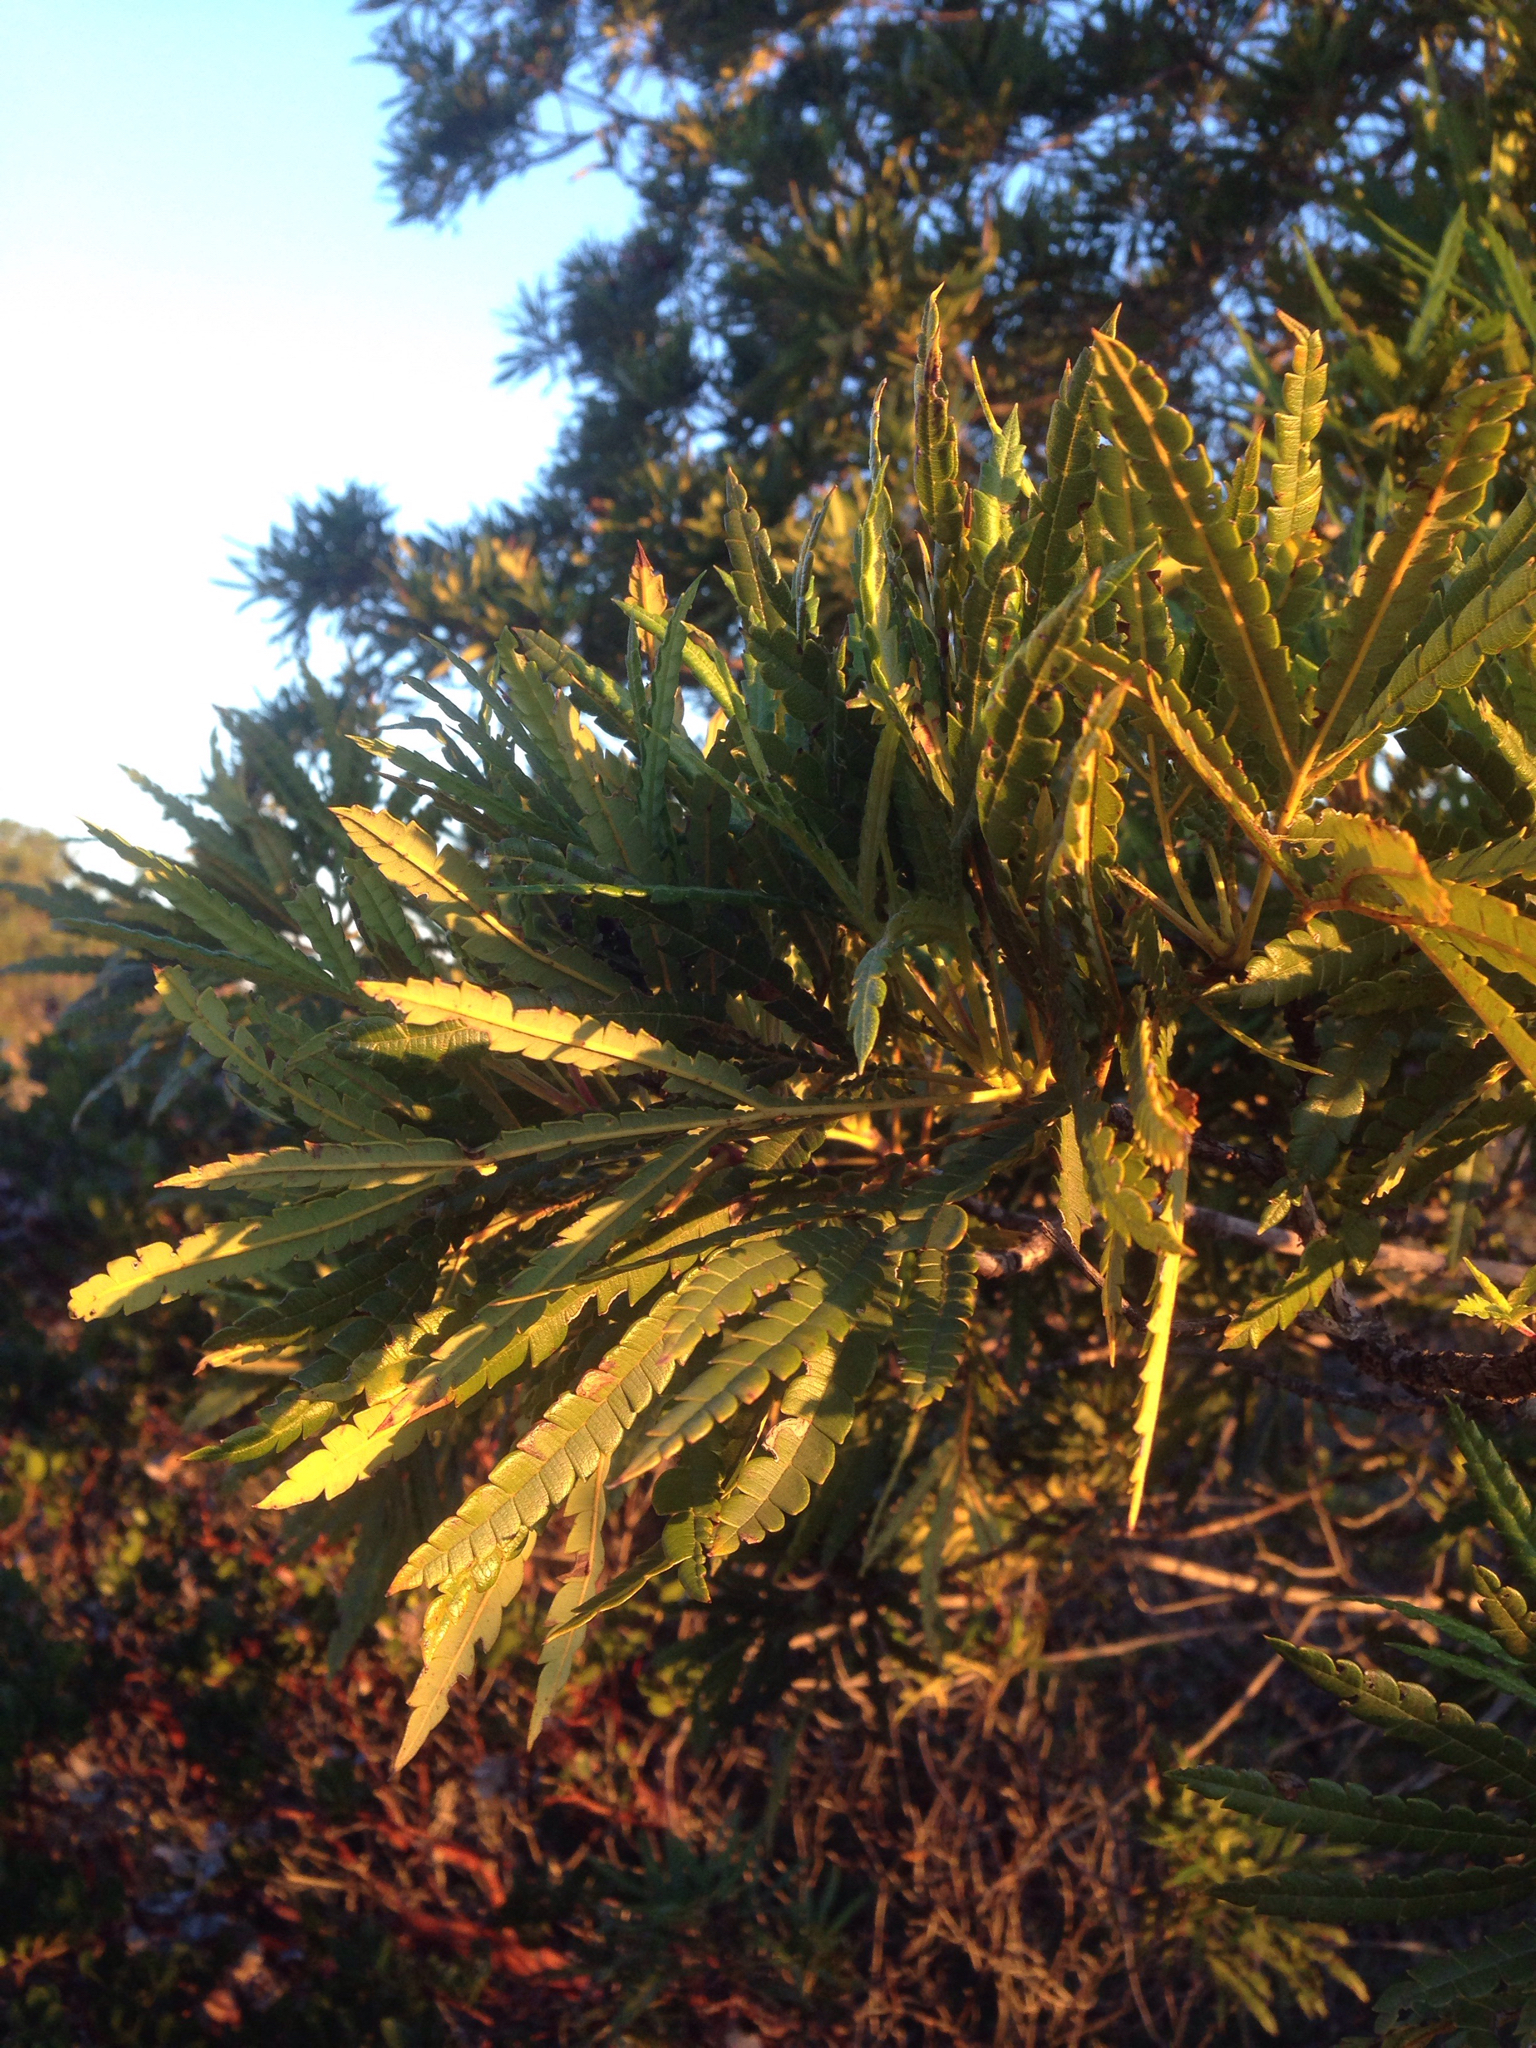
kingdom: Plantae
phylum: Tracheophyta
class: Magnoliopsida
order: Rosales
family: Rosaceae
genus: Lyonothamnus
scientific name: Lyonothamnus floribundus
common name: Catalina ironwood
